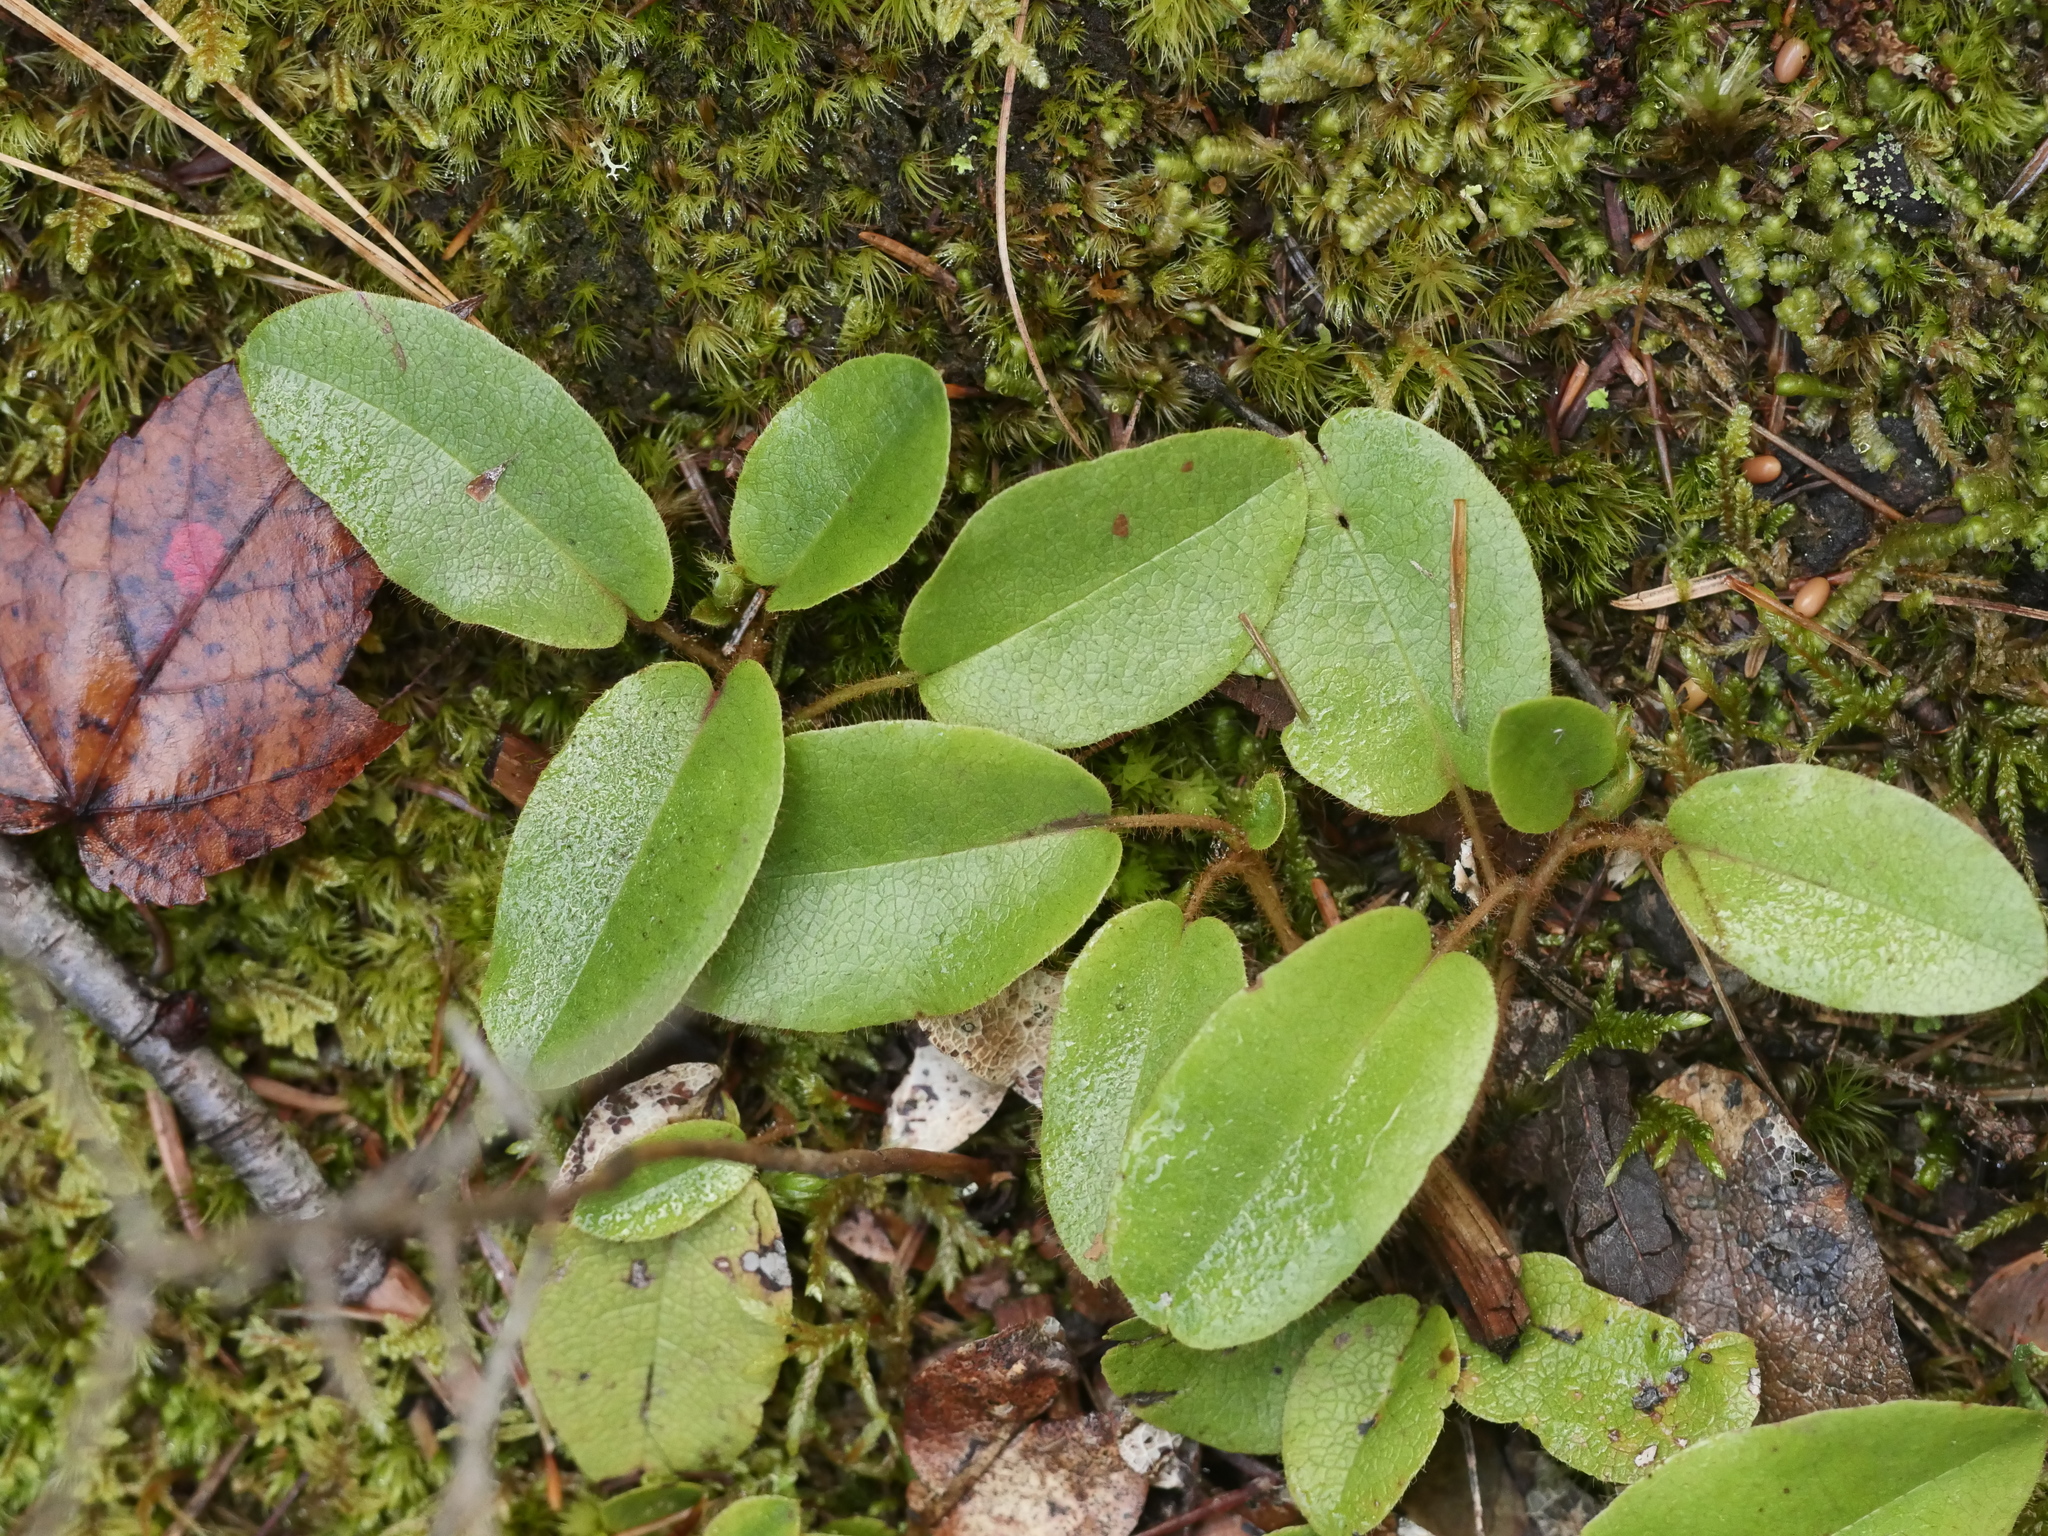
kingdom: Plantae
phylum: Tracheophyta
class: Magnoliopsida
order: Ericales
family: Ericaceae
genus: Epigaea
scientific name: Epigaea repens
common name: Gravelroot
